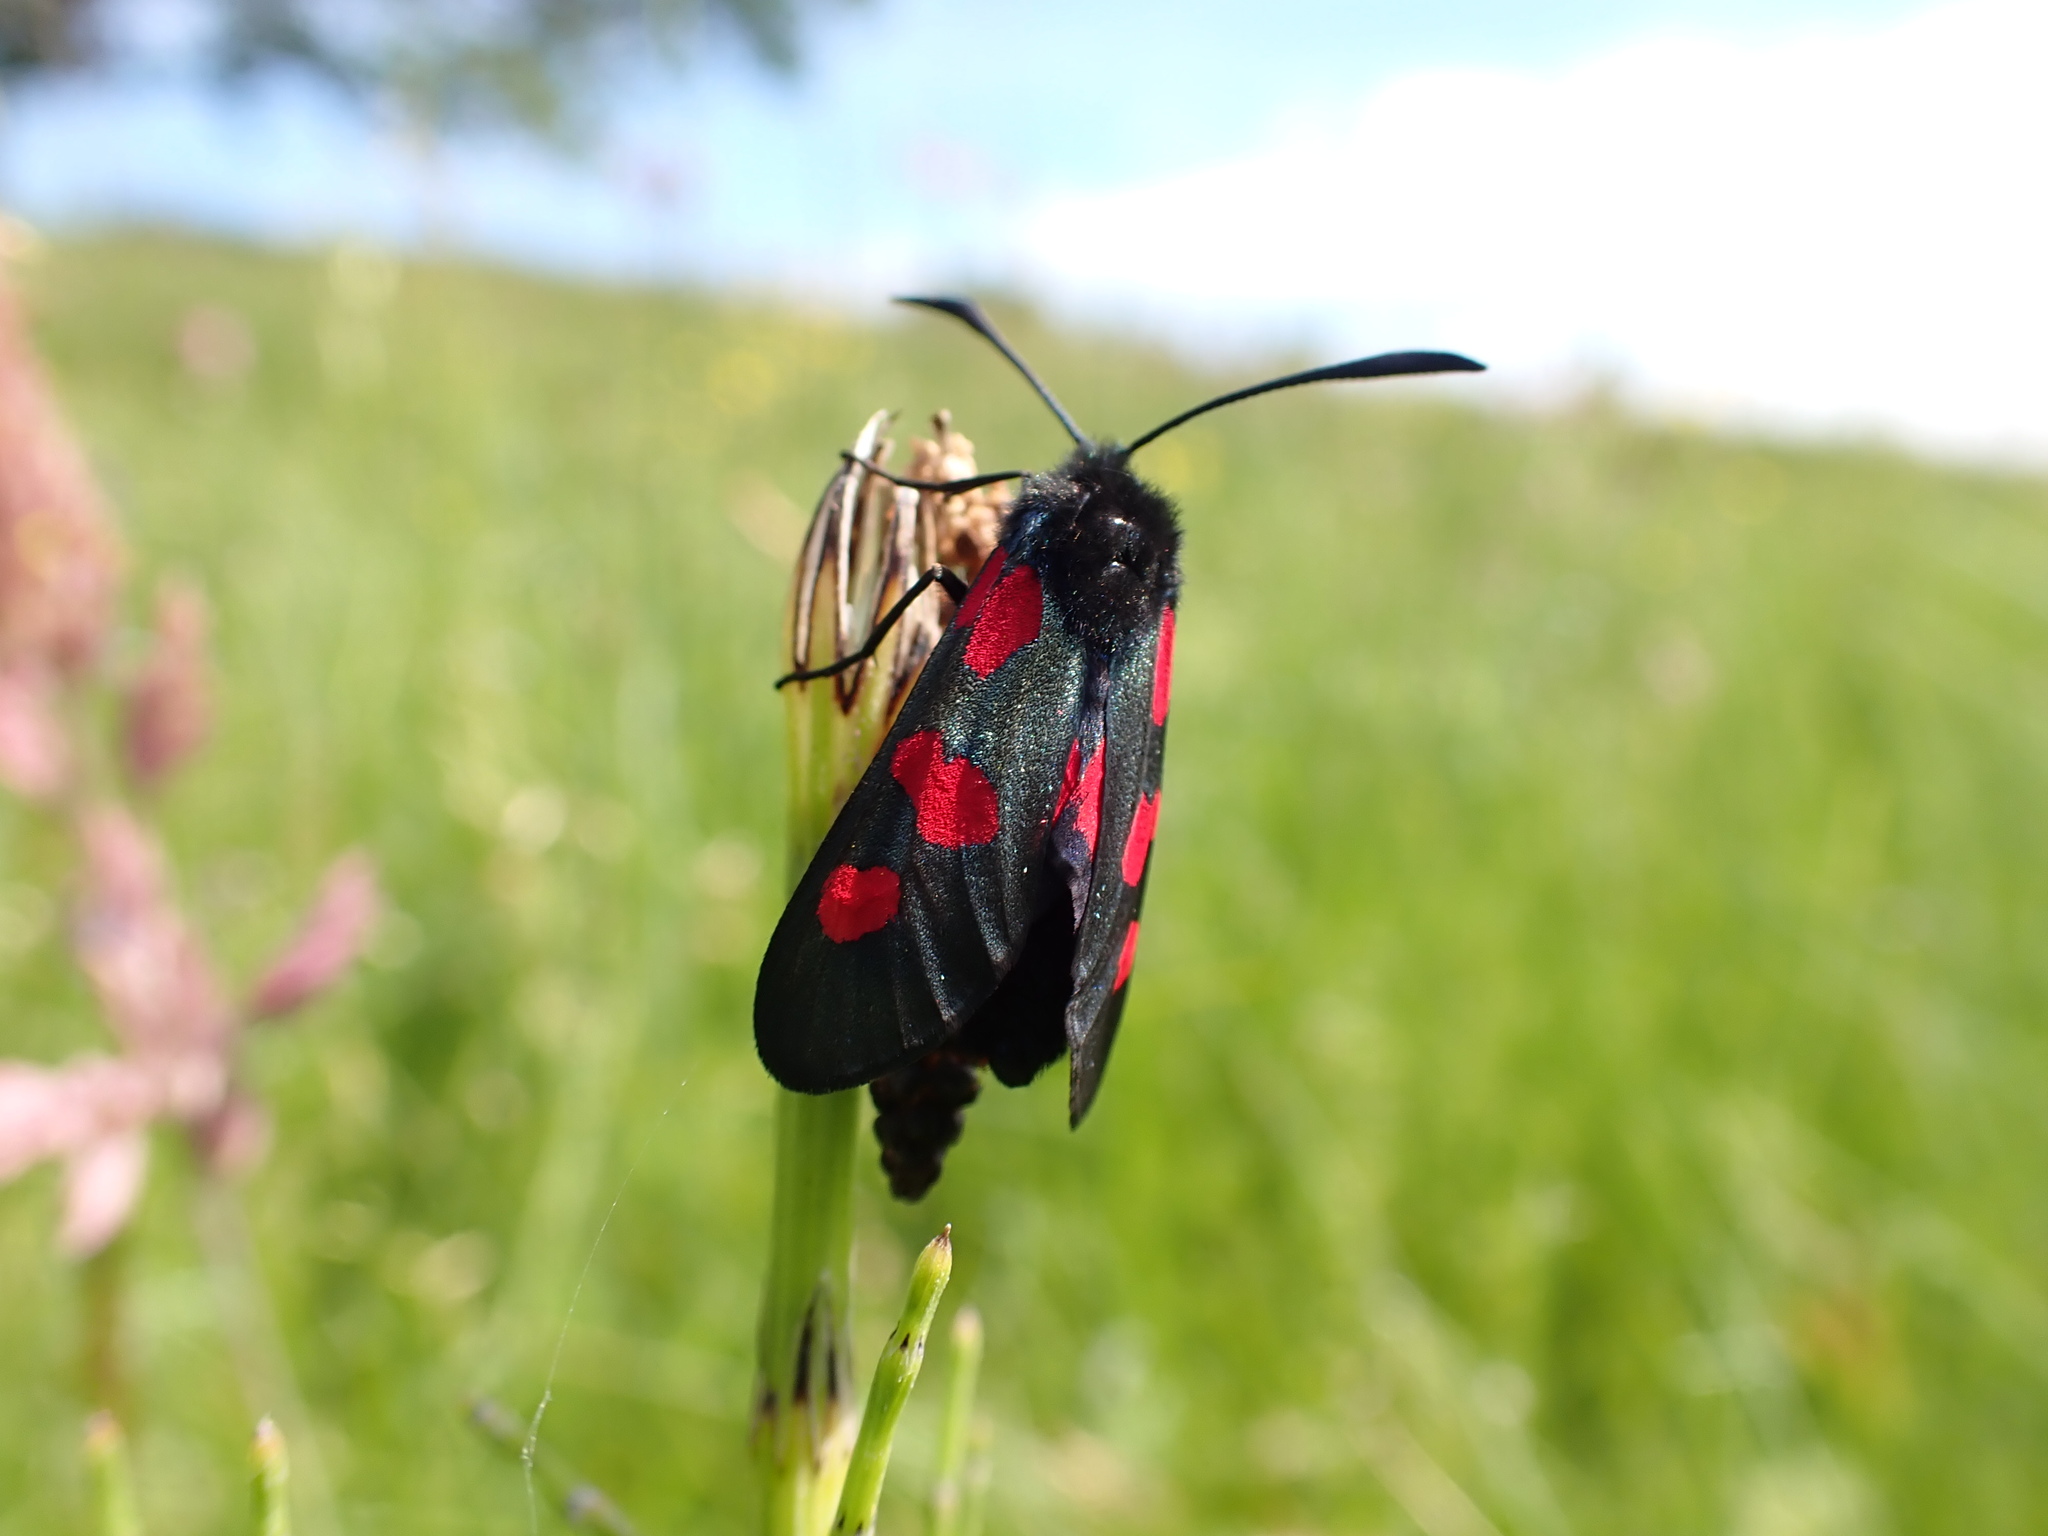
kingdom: Animalia
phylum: Arthropoda
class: Insecta
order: Lepidoptera
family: Zygaenidae
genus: Zygaena
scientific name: Zygaena trifolii
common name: Five-spot burnet
